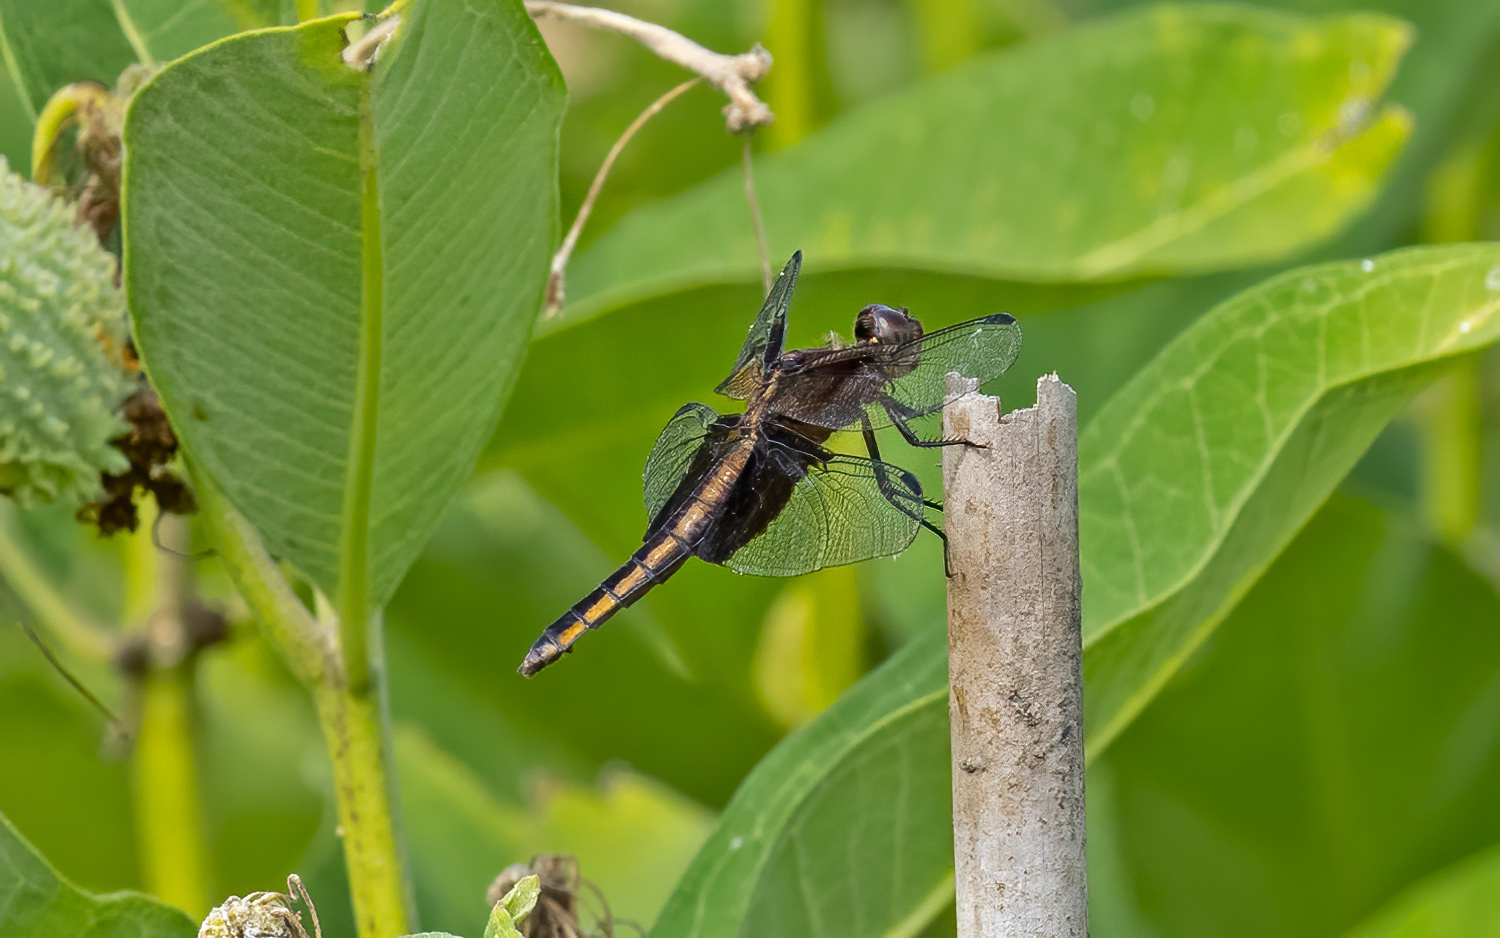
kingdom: Animalia
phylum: Arthropoda
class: Insecta
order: Odonata
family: Libellulidae
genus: Libellula
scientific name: Libellula luctuosa
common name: Widow skimmer
